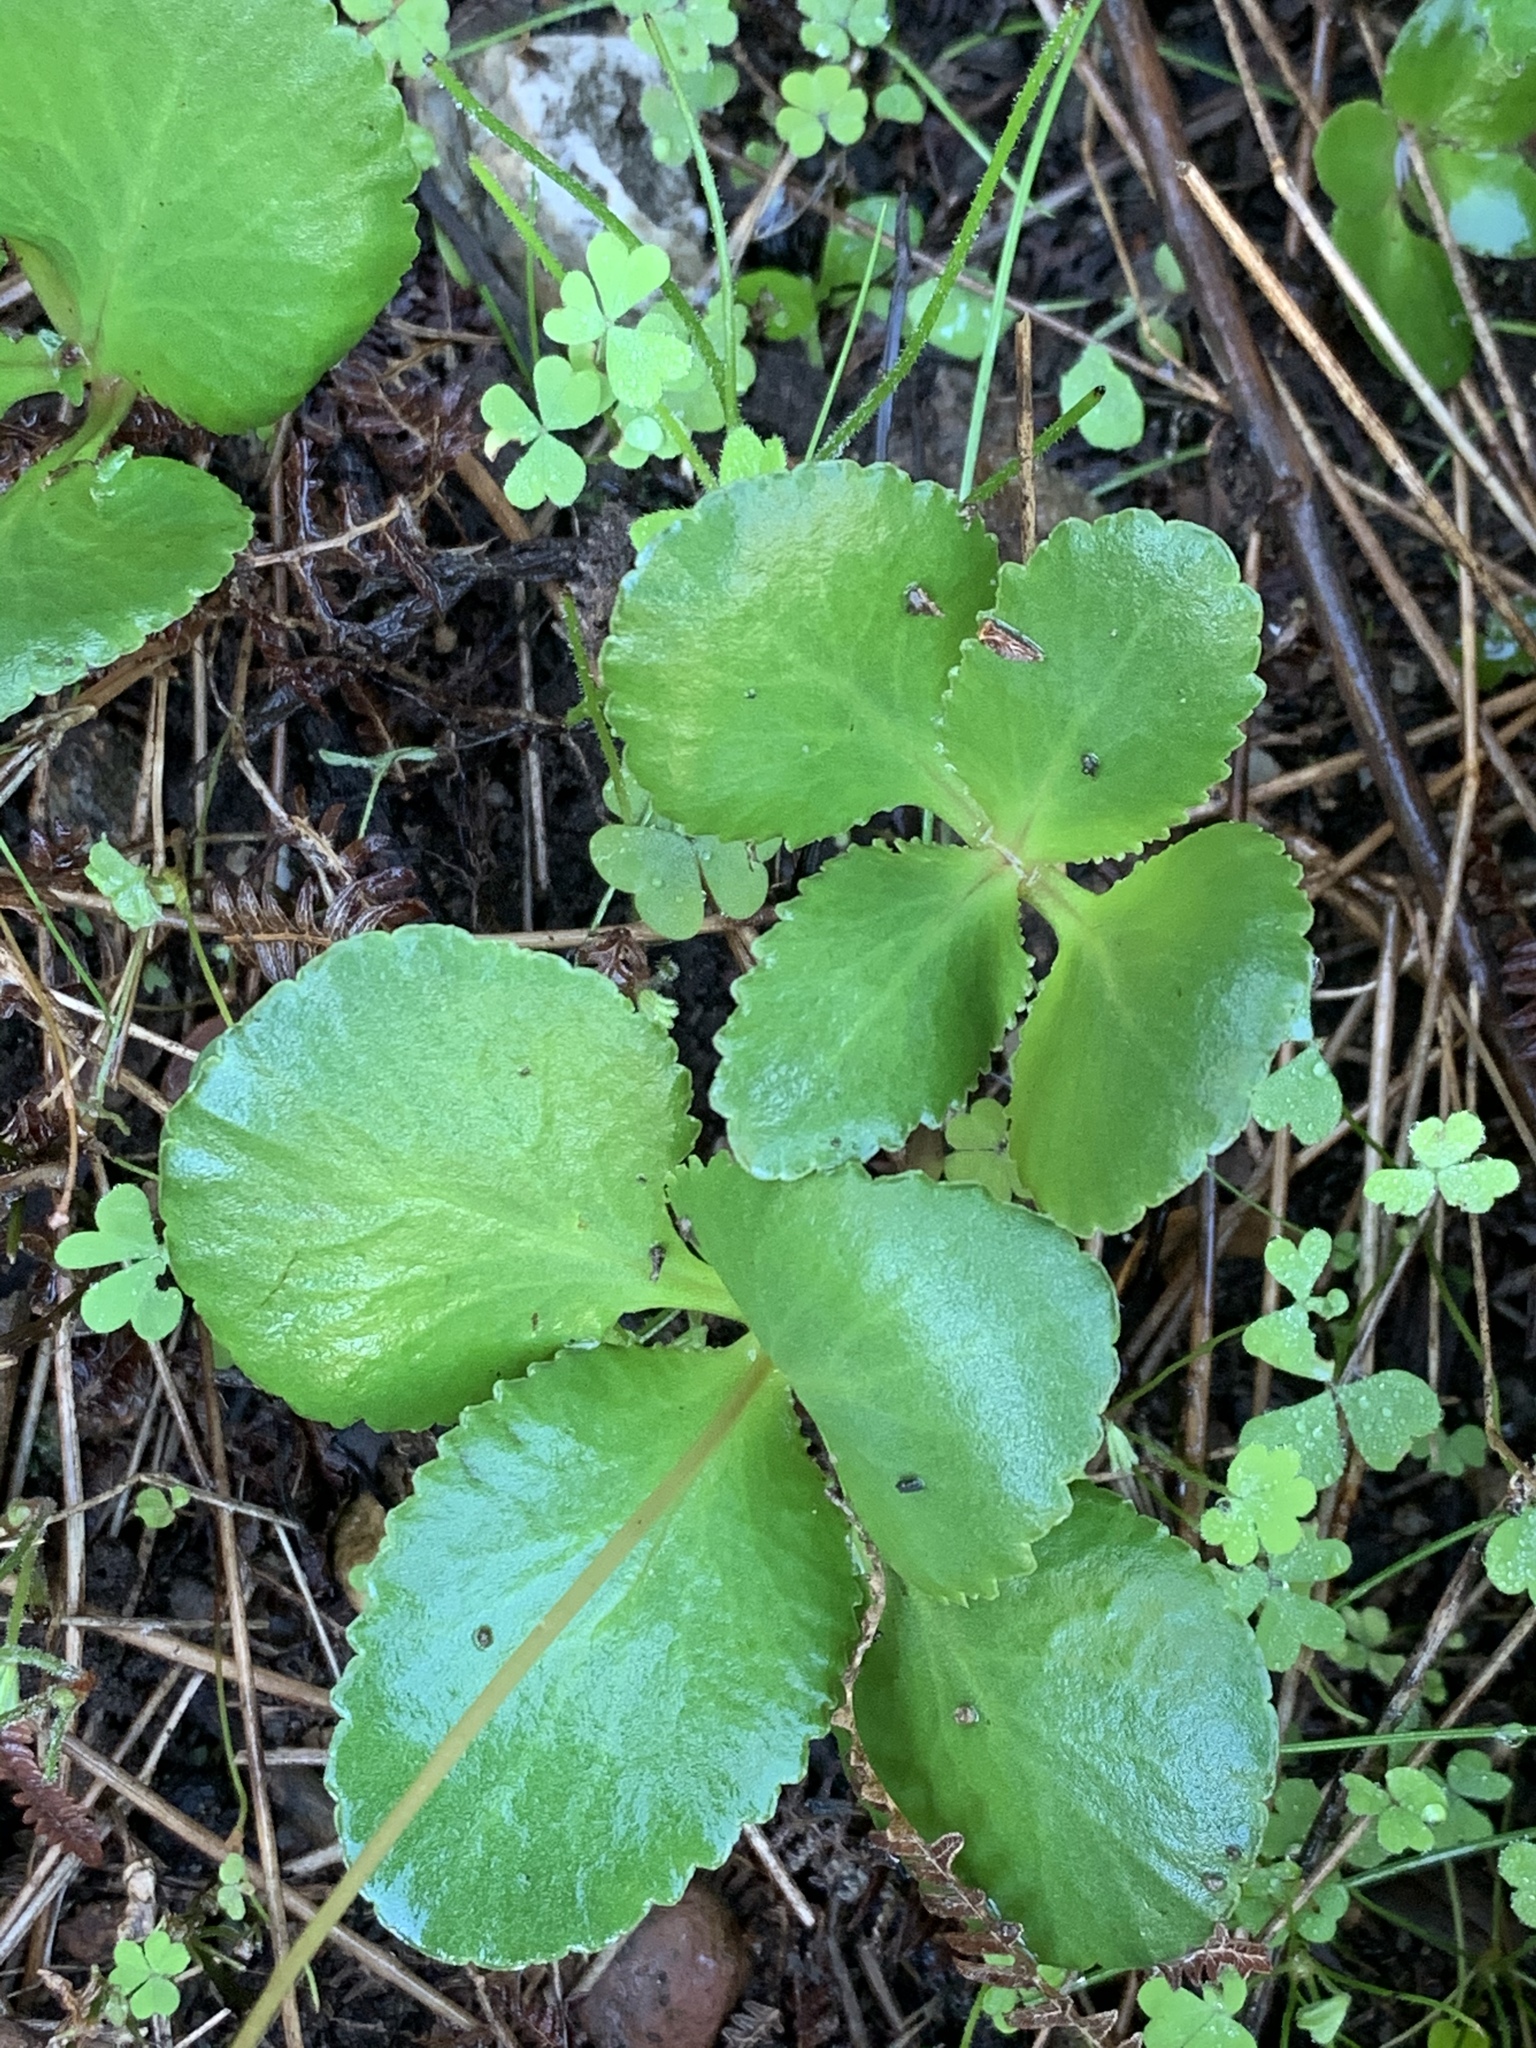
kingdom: Plantae
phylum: Tracheophyta
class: Magnoliopsida
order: Saxifragales
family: Crassulaceae
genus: Crassula
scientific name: Crassula capensis
